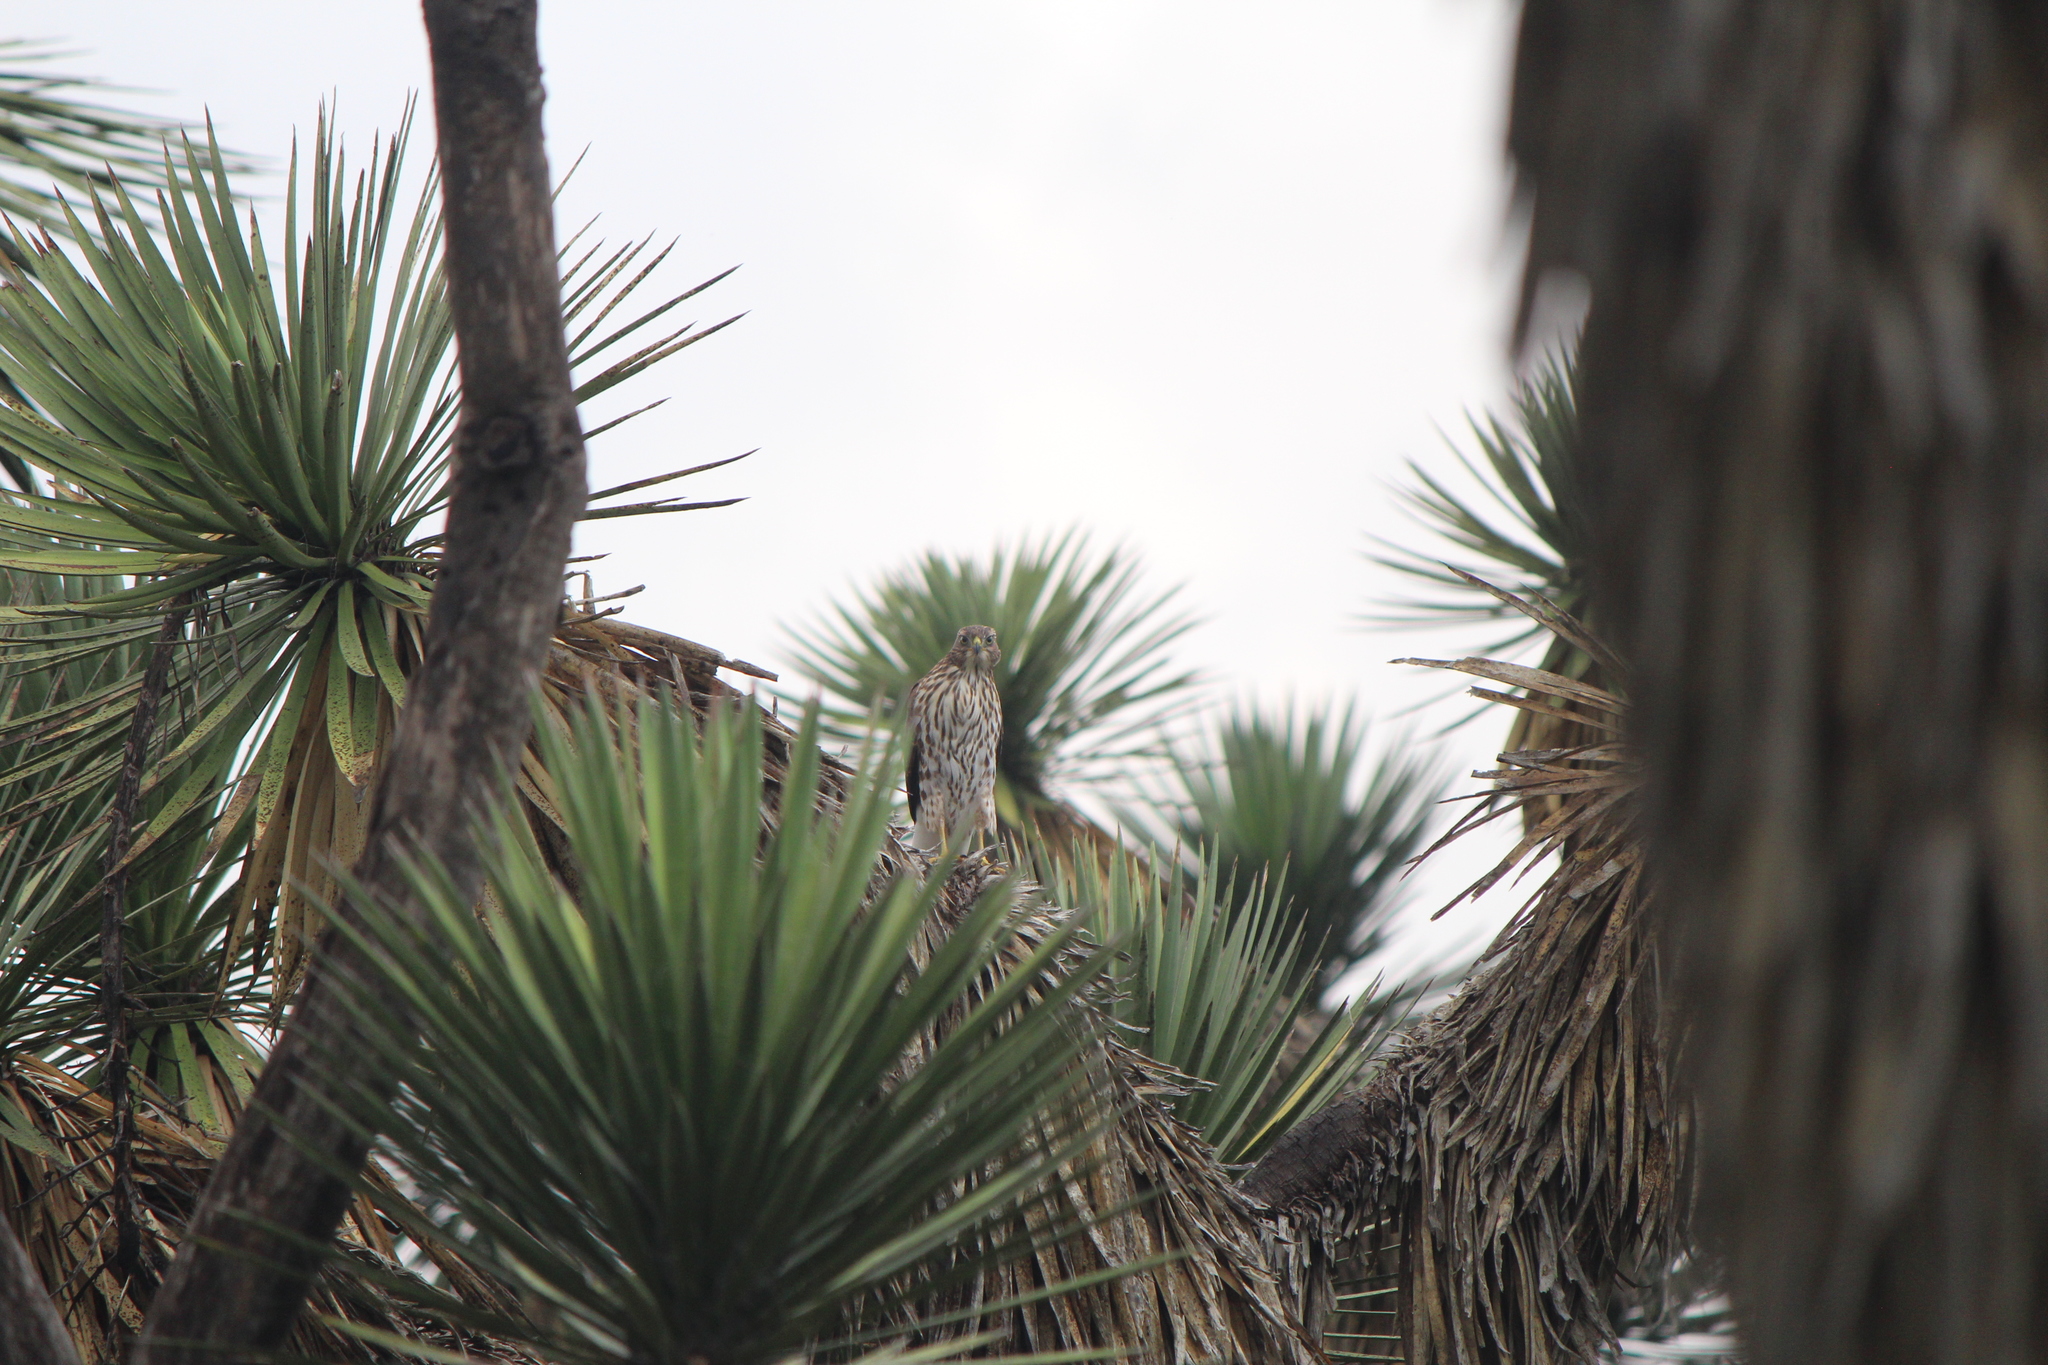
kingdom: Animalia
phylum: Chordata
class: Aves
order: Accipitriformes
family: Accipitridae
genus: Accipiter
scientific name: Accipiter cooperii
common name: Cooper's hawk
